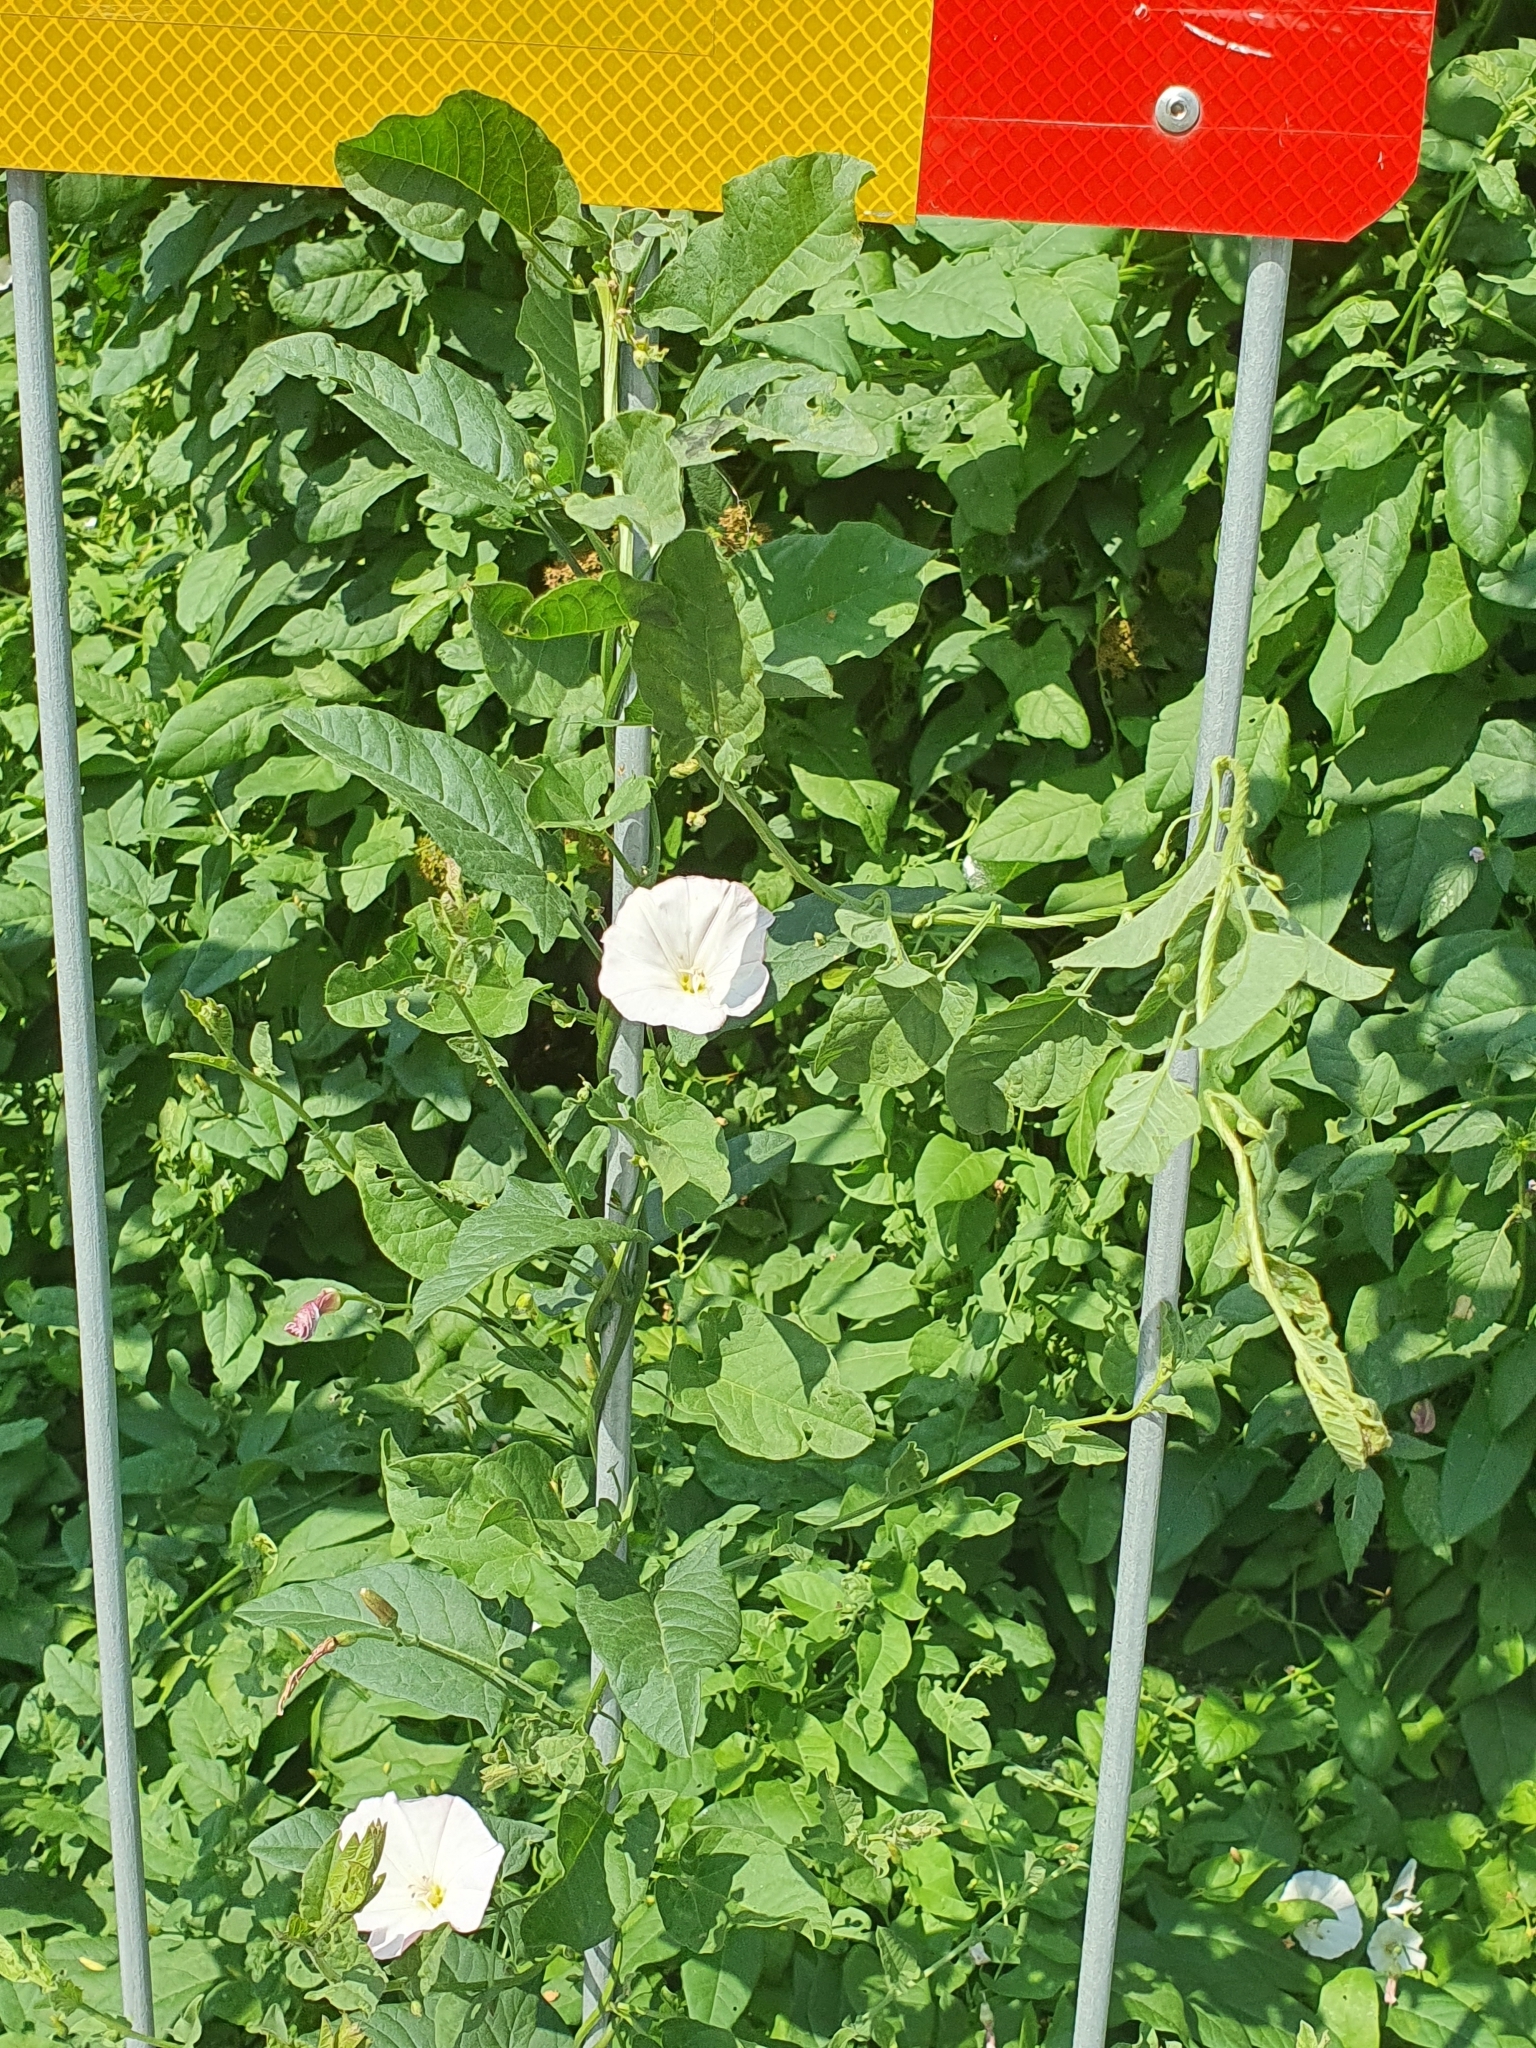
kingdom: Plantae
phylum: Tracheophyta
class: Magnoliopsida
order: Solanales
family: Convolvulaceae
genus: Convolvulus
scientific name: Convolvulus arvensis
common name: Field bindweed
